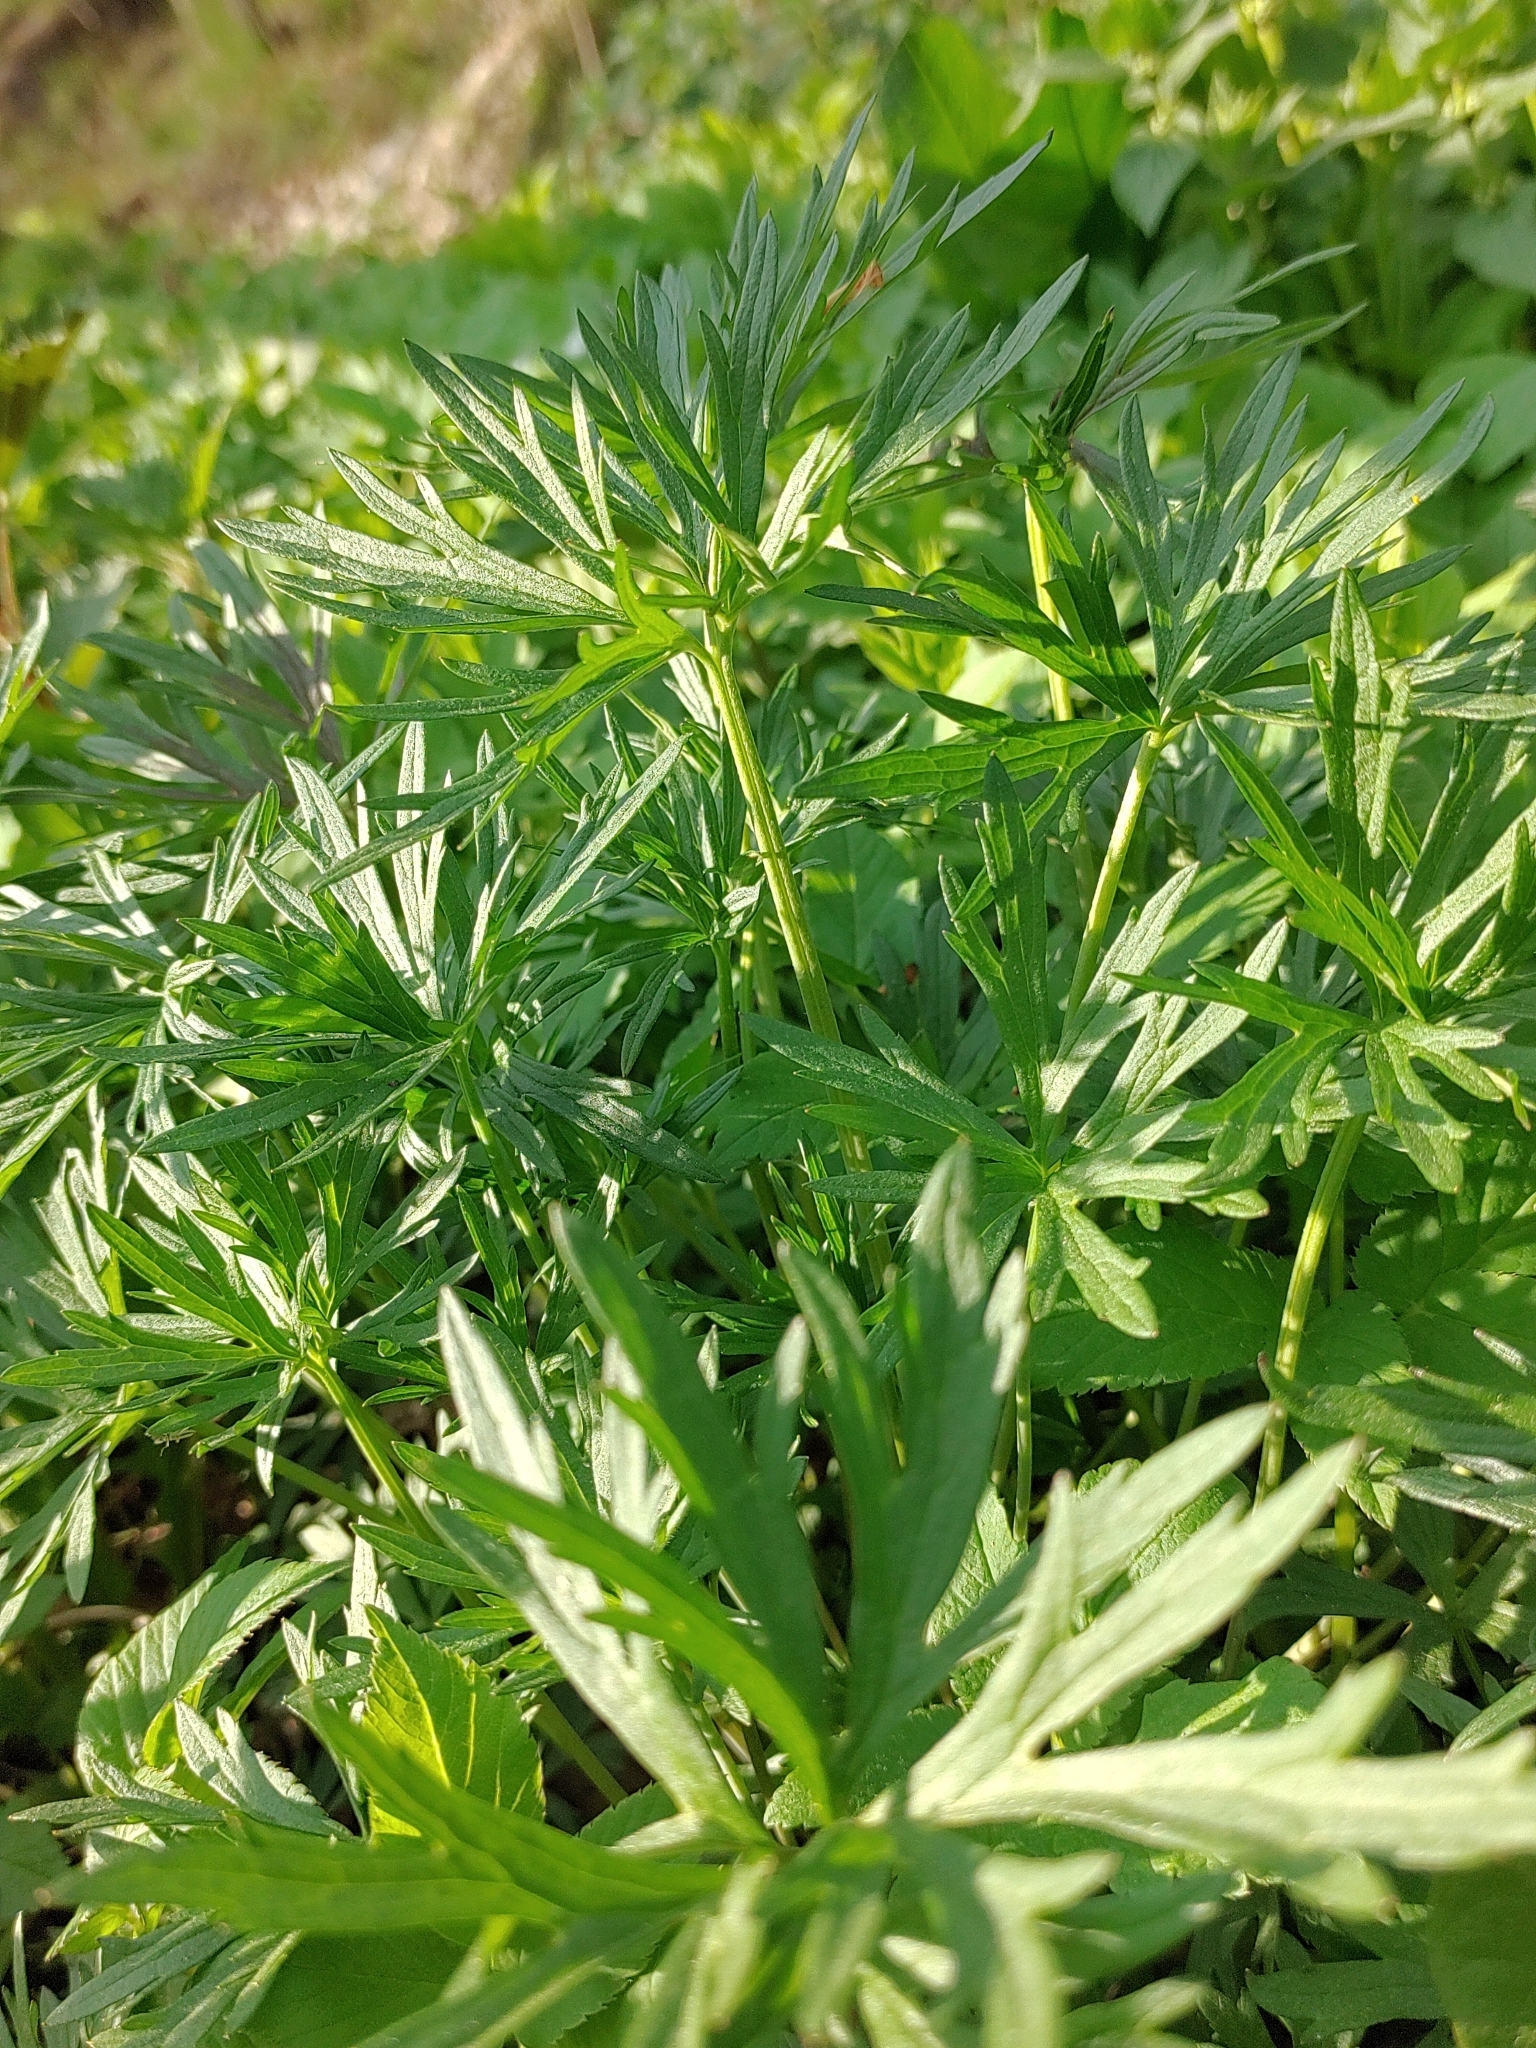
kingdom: Plantae
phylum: Tracheophyta
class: Magnoliopsida
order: Ranunculales
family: Ranunculaceae
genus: Ranunculus
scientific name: Ranunculus acris
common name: Meadow buttercup
